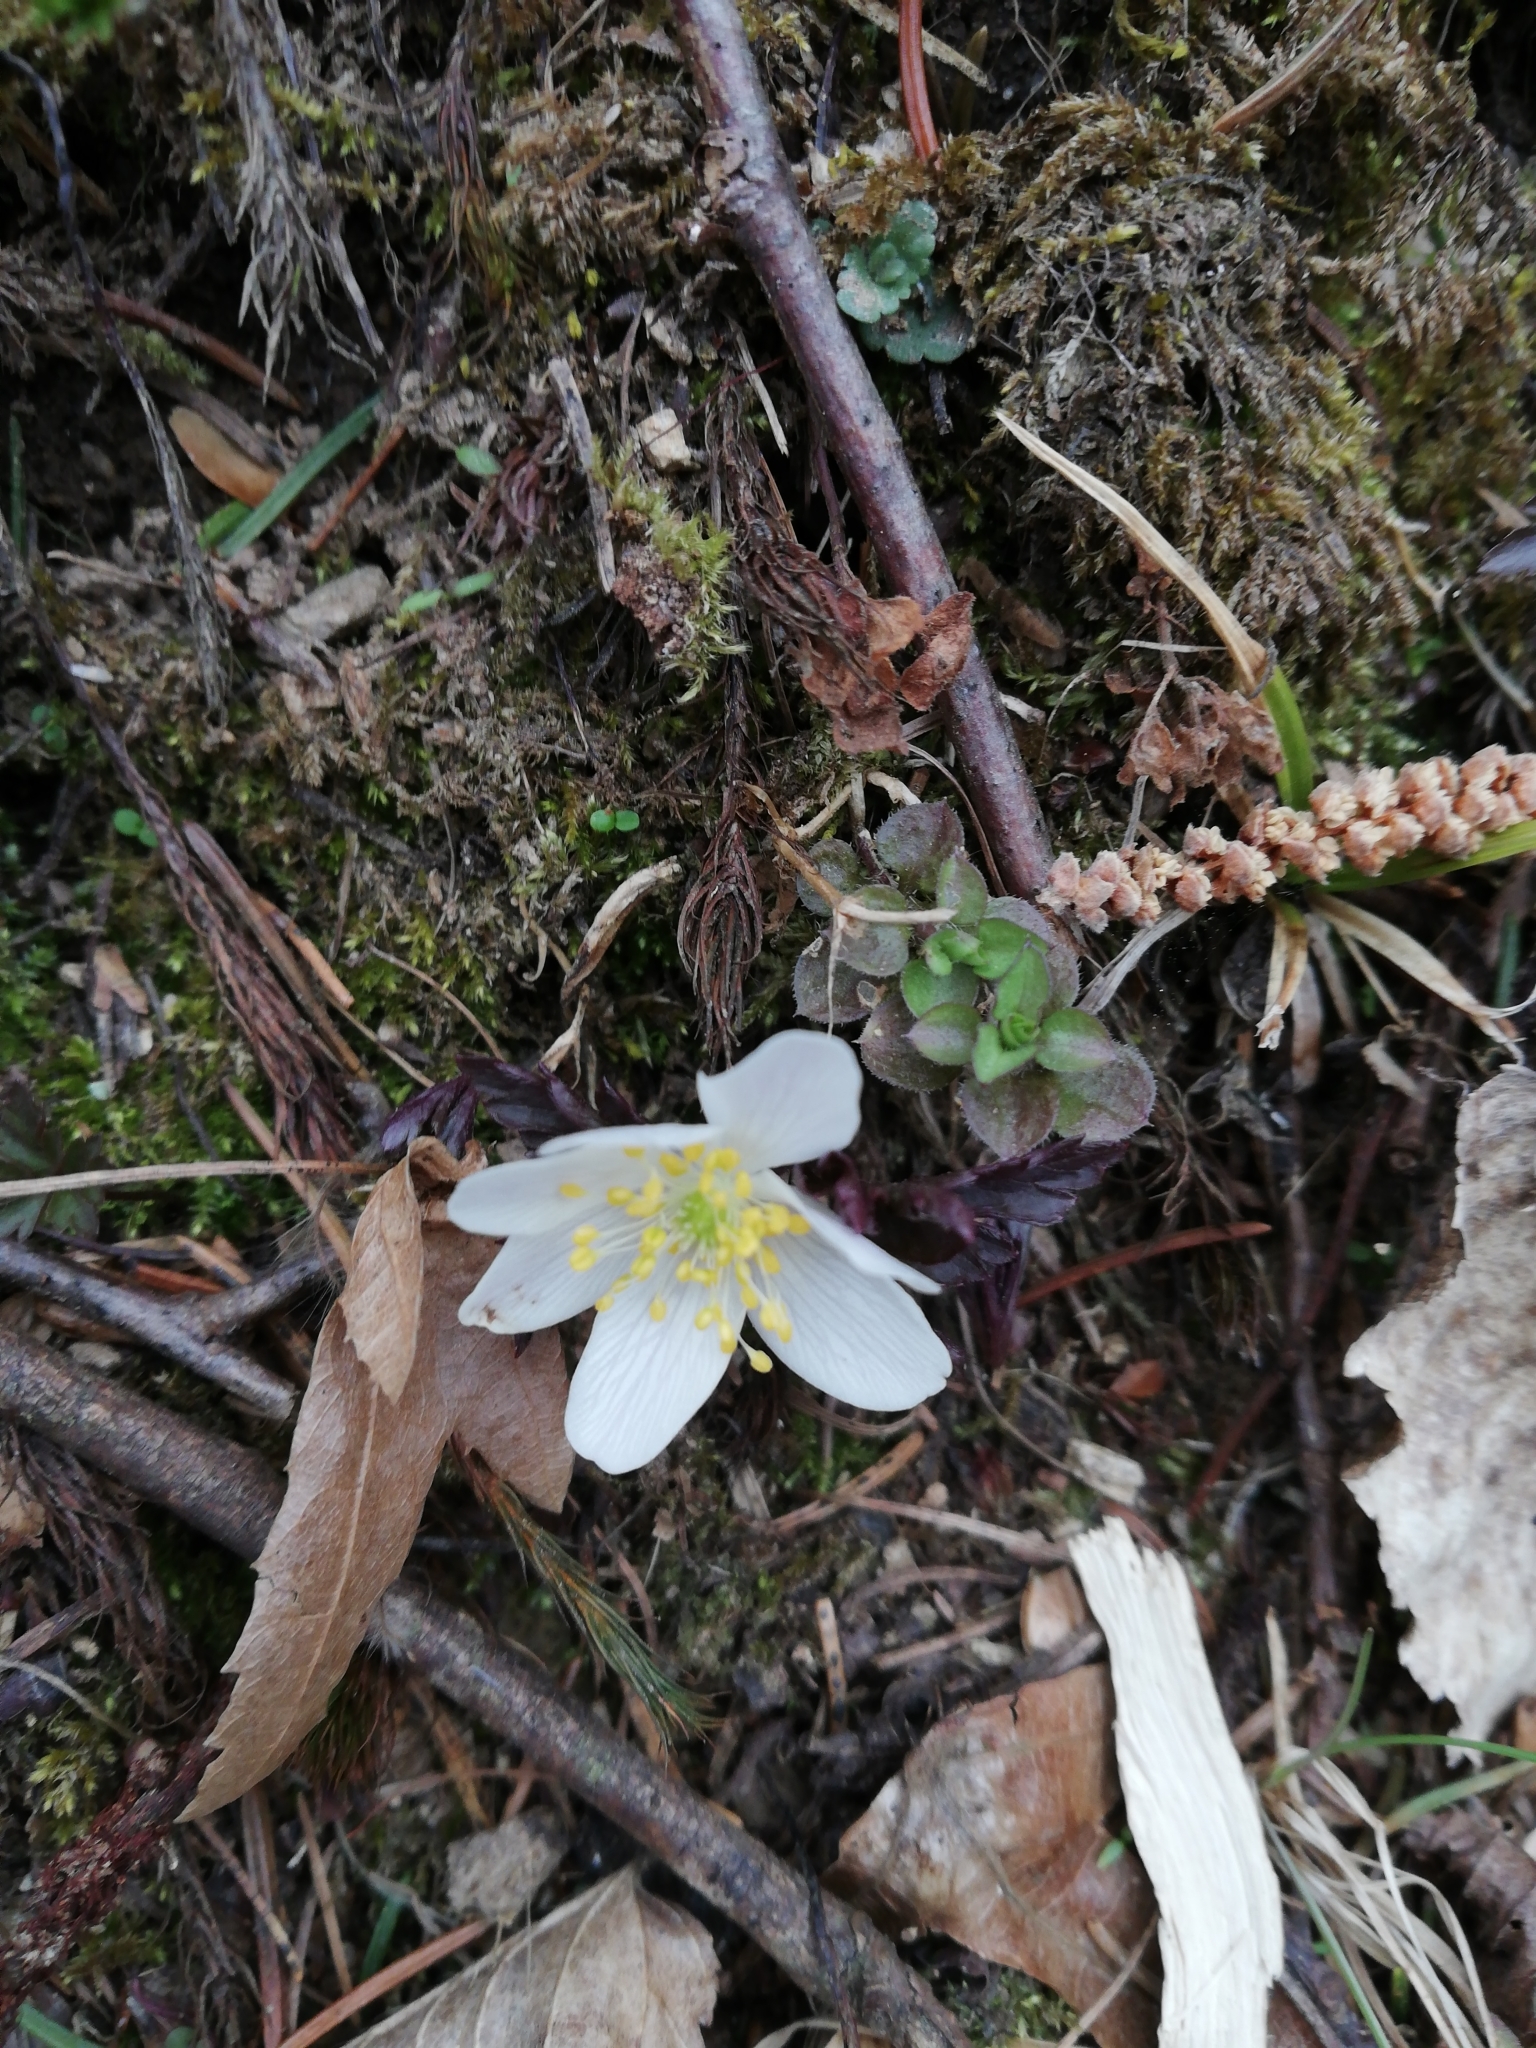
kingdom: Plantae
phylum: Tracheophyta
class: Magnoliopsida
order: Ranunculales
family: Ranunculaceae
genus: Anemone
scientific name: Anemone nemorosa
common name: Wood anemone
